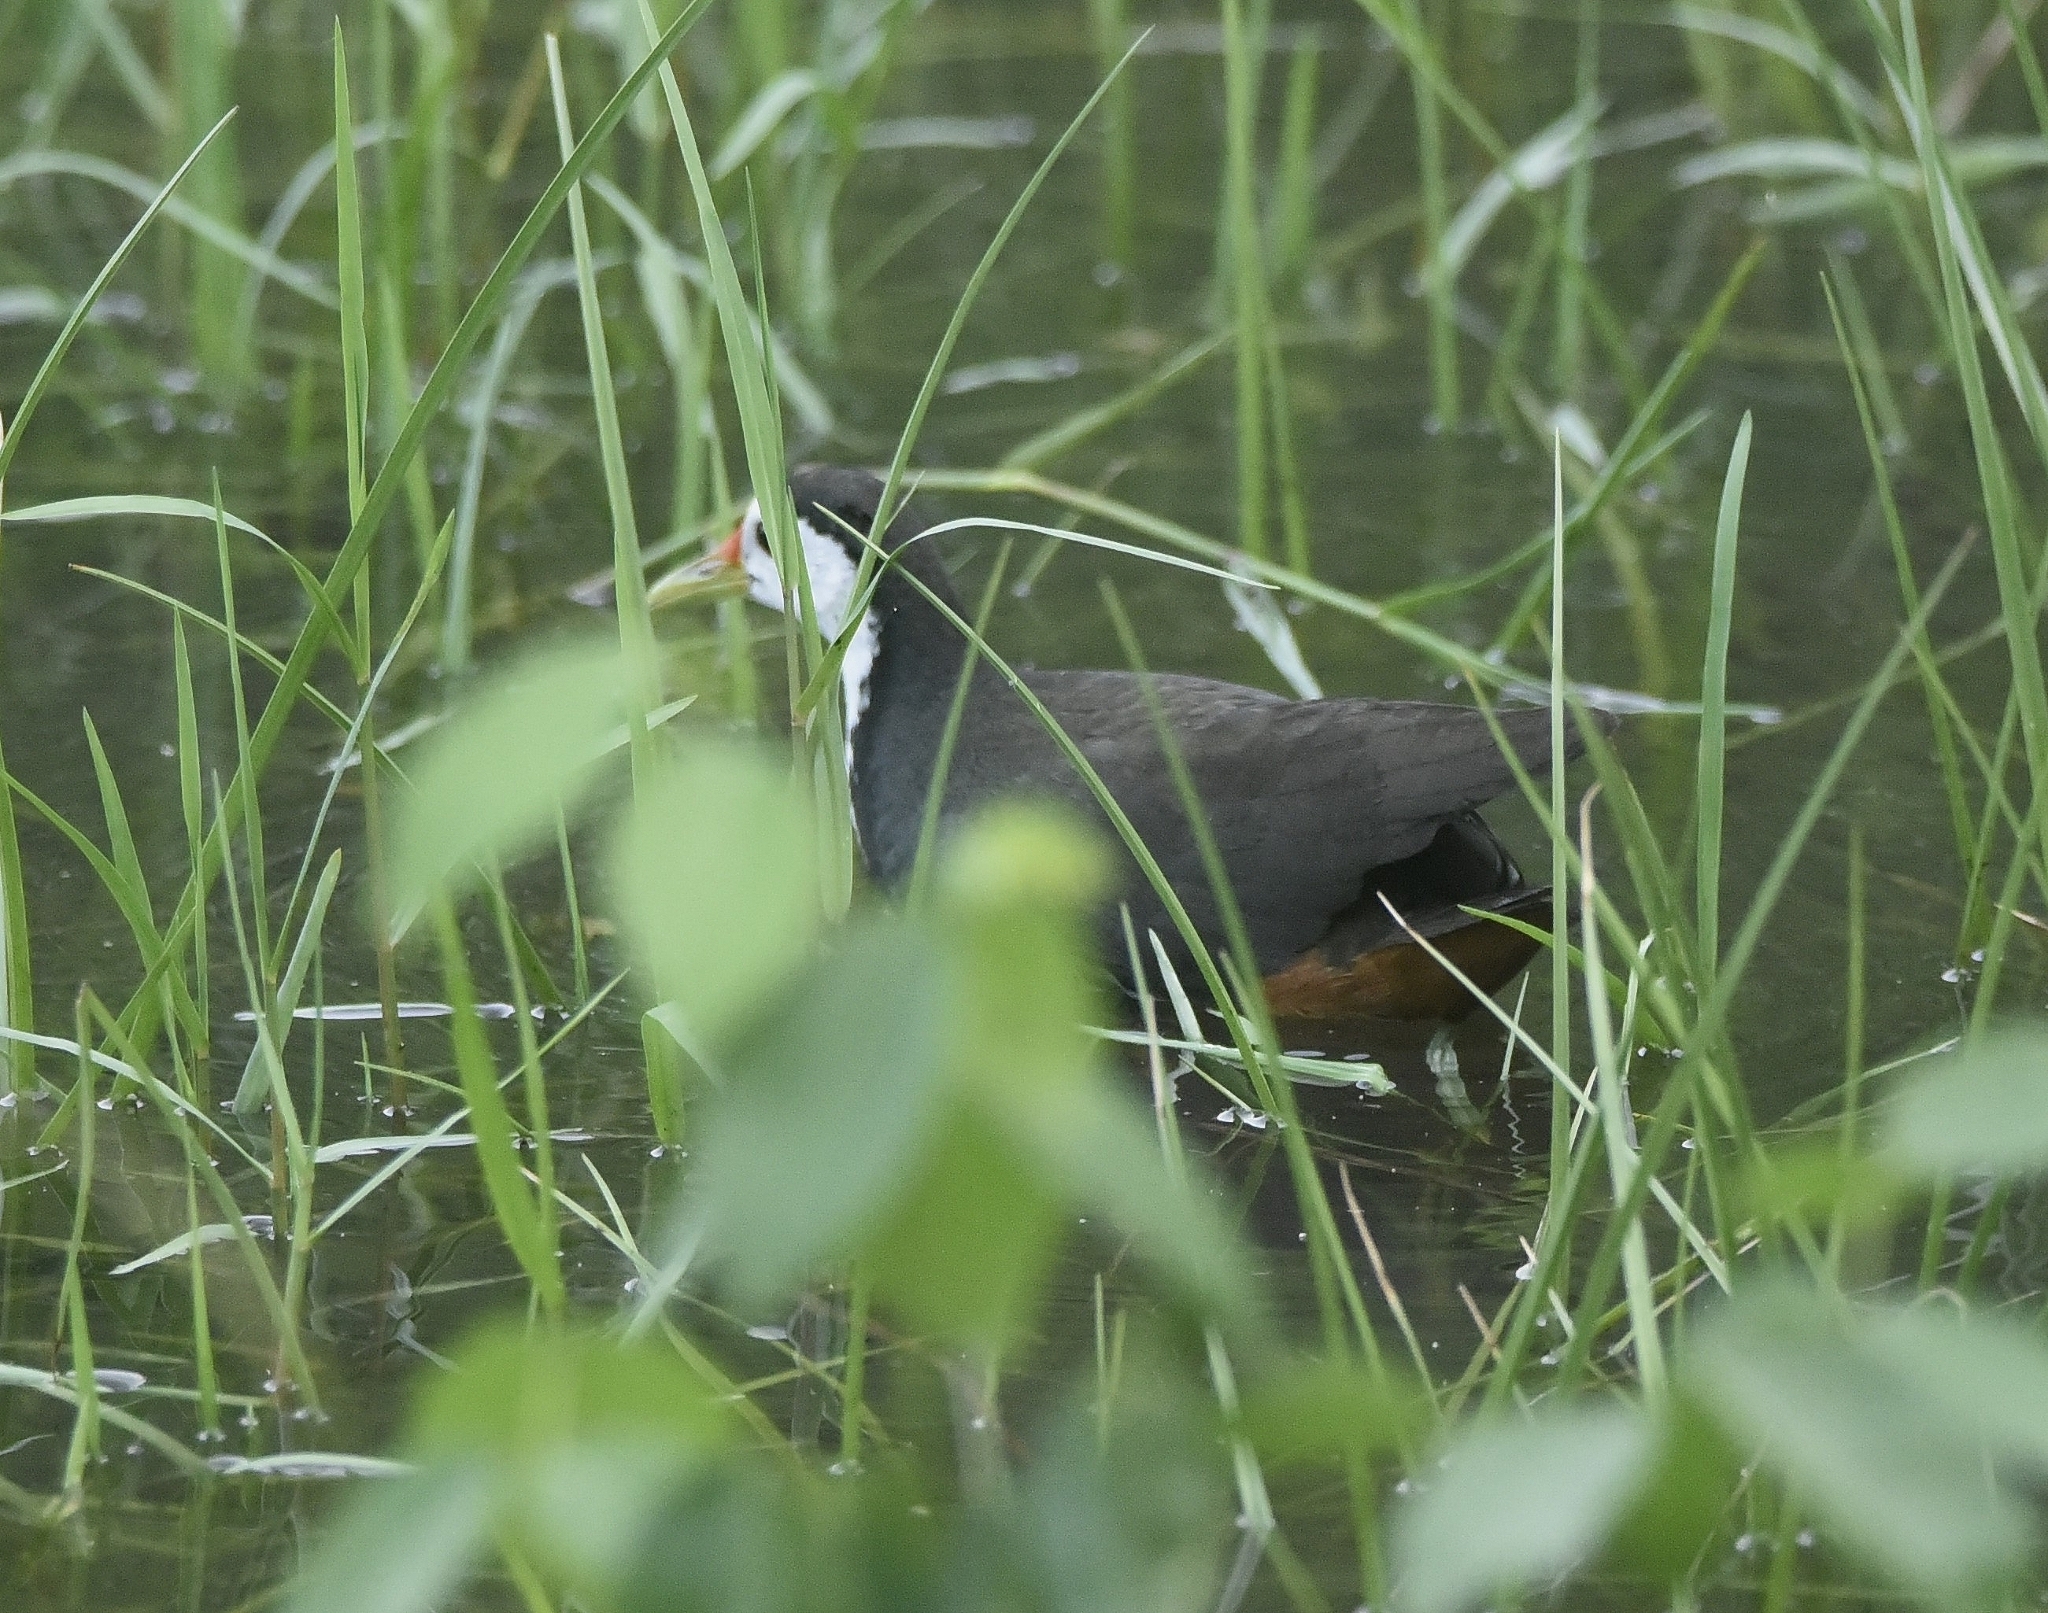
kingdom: Animalia
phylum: Chordata
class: Aves
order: Gruiformes
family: Rallidae
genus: Amaurornis
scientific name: Amaurornis phoenicurus
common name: White-breasted waterhen
